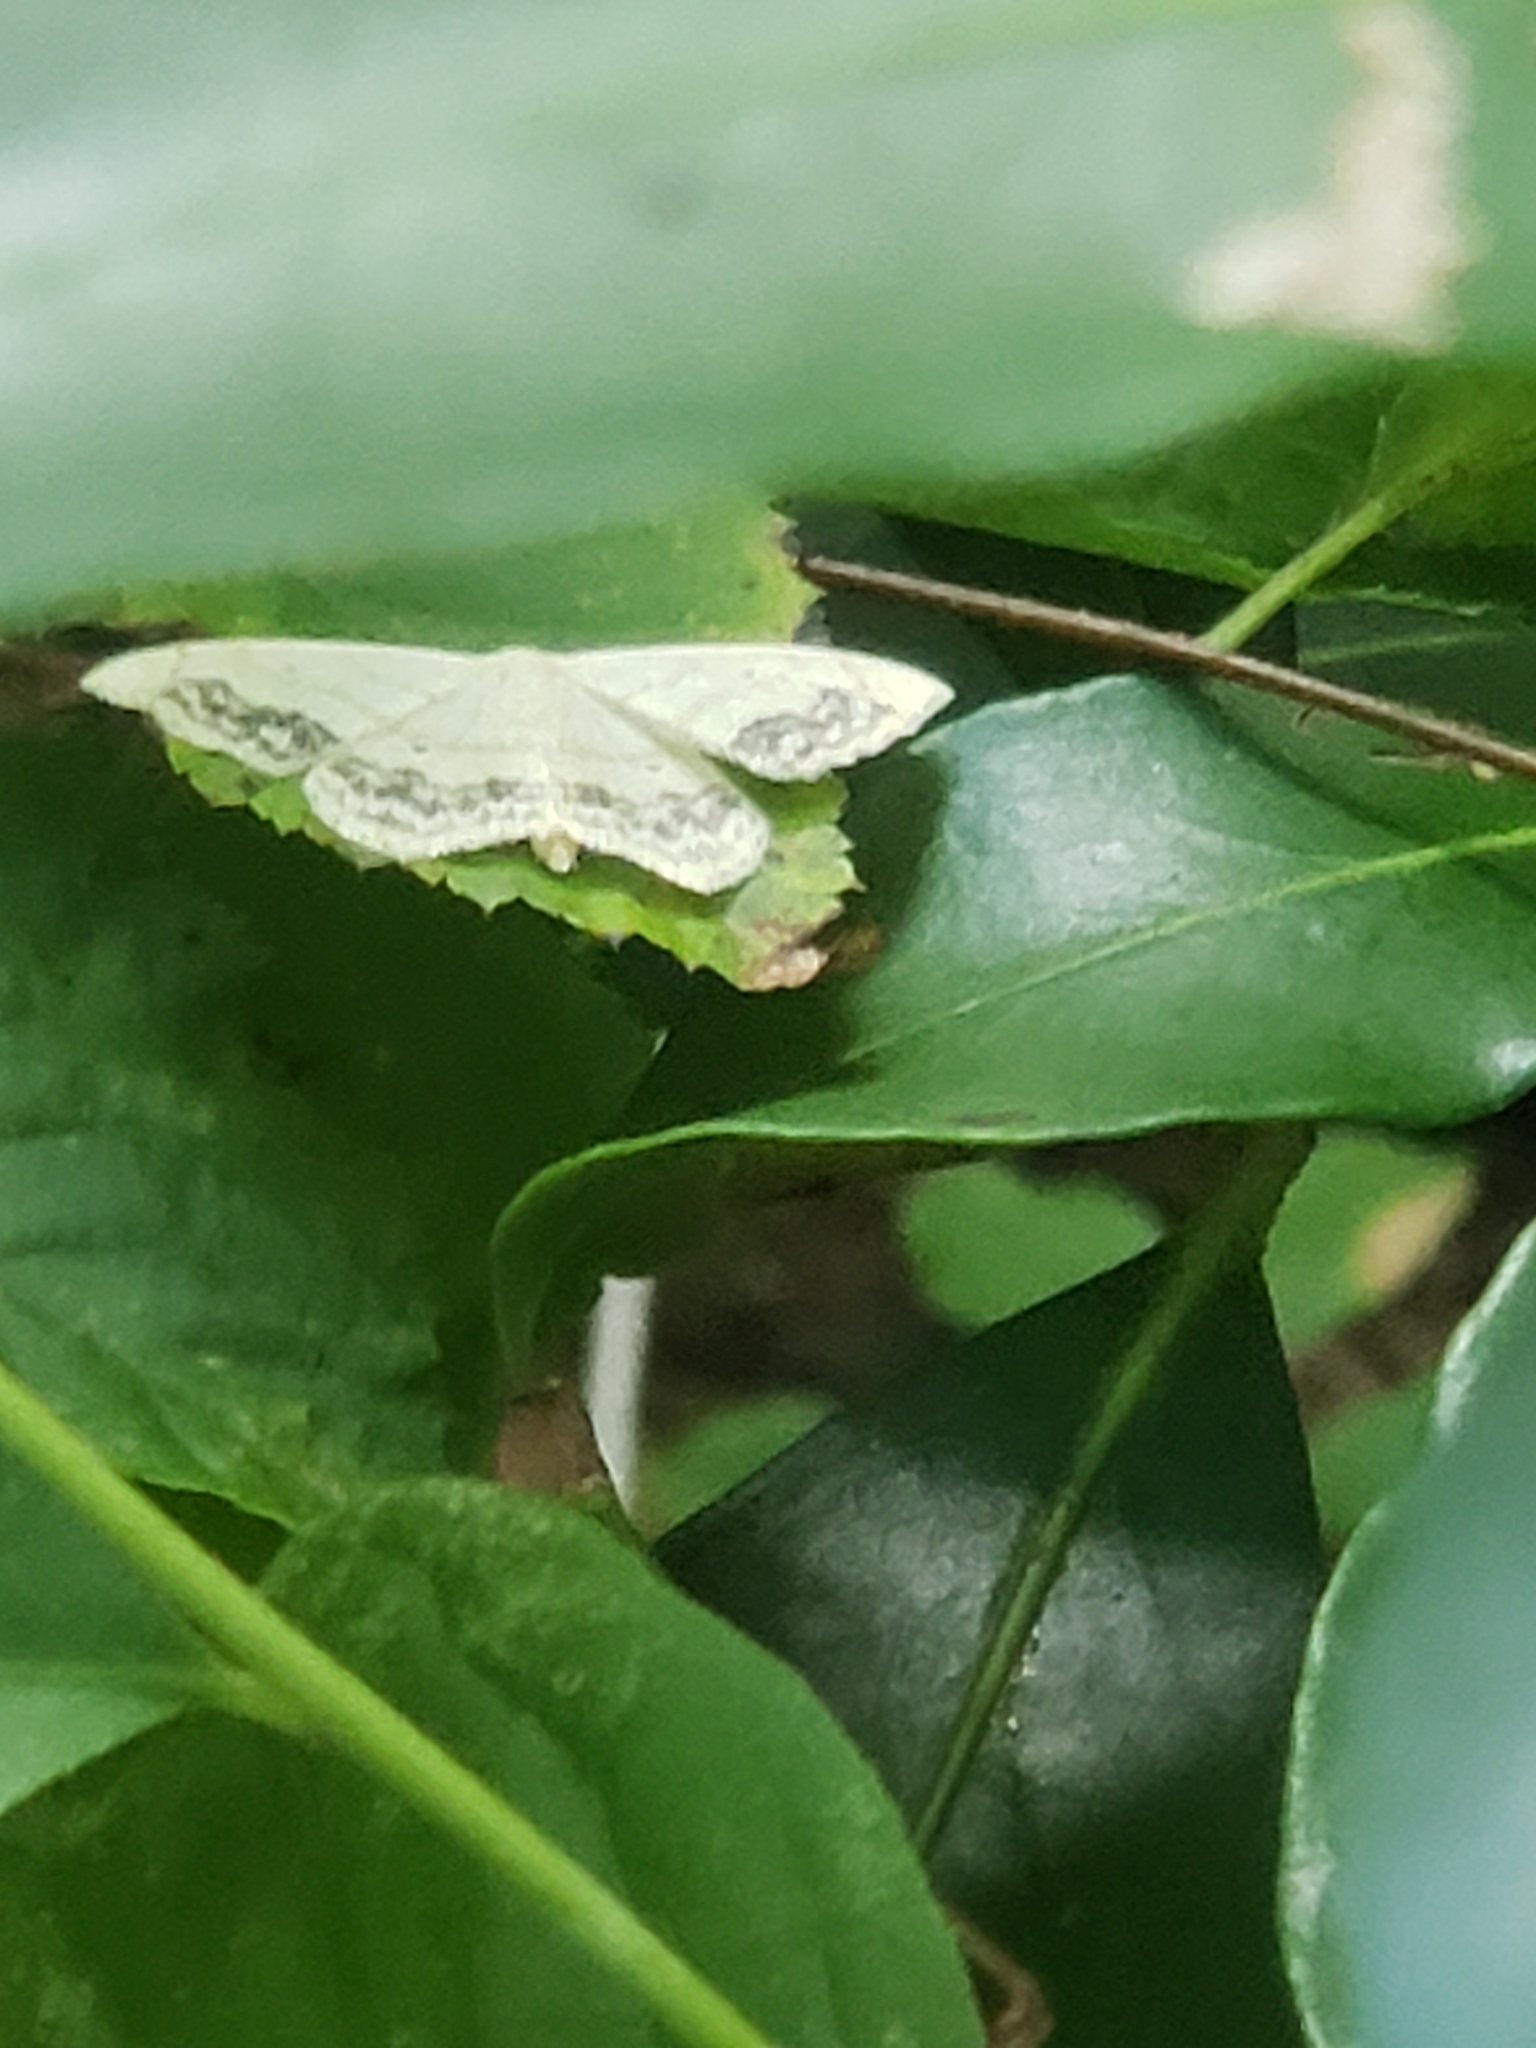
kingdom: Animalia
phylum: Arthropoda
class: Insecta
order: Lepidoptera
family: Geometridae
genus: Scopula
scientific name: Scopula limboundata
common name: Large lace border
